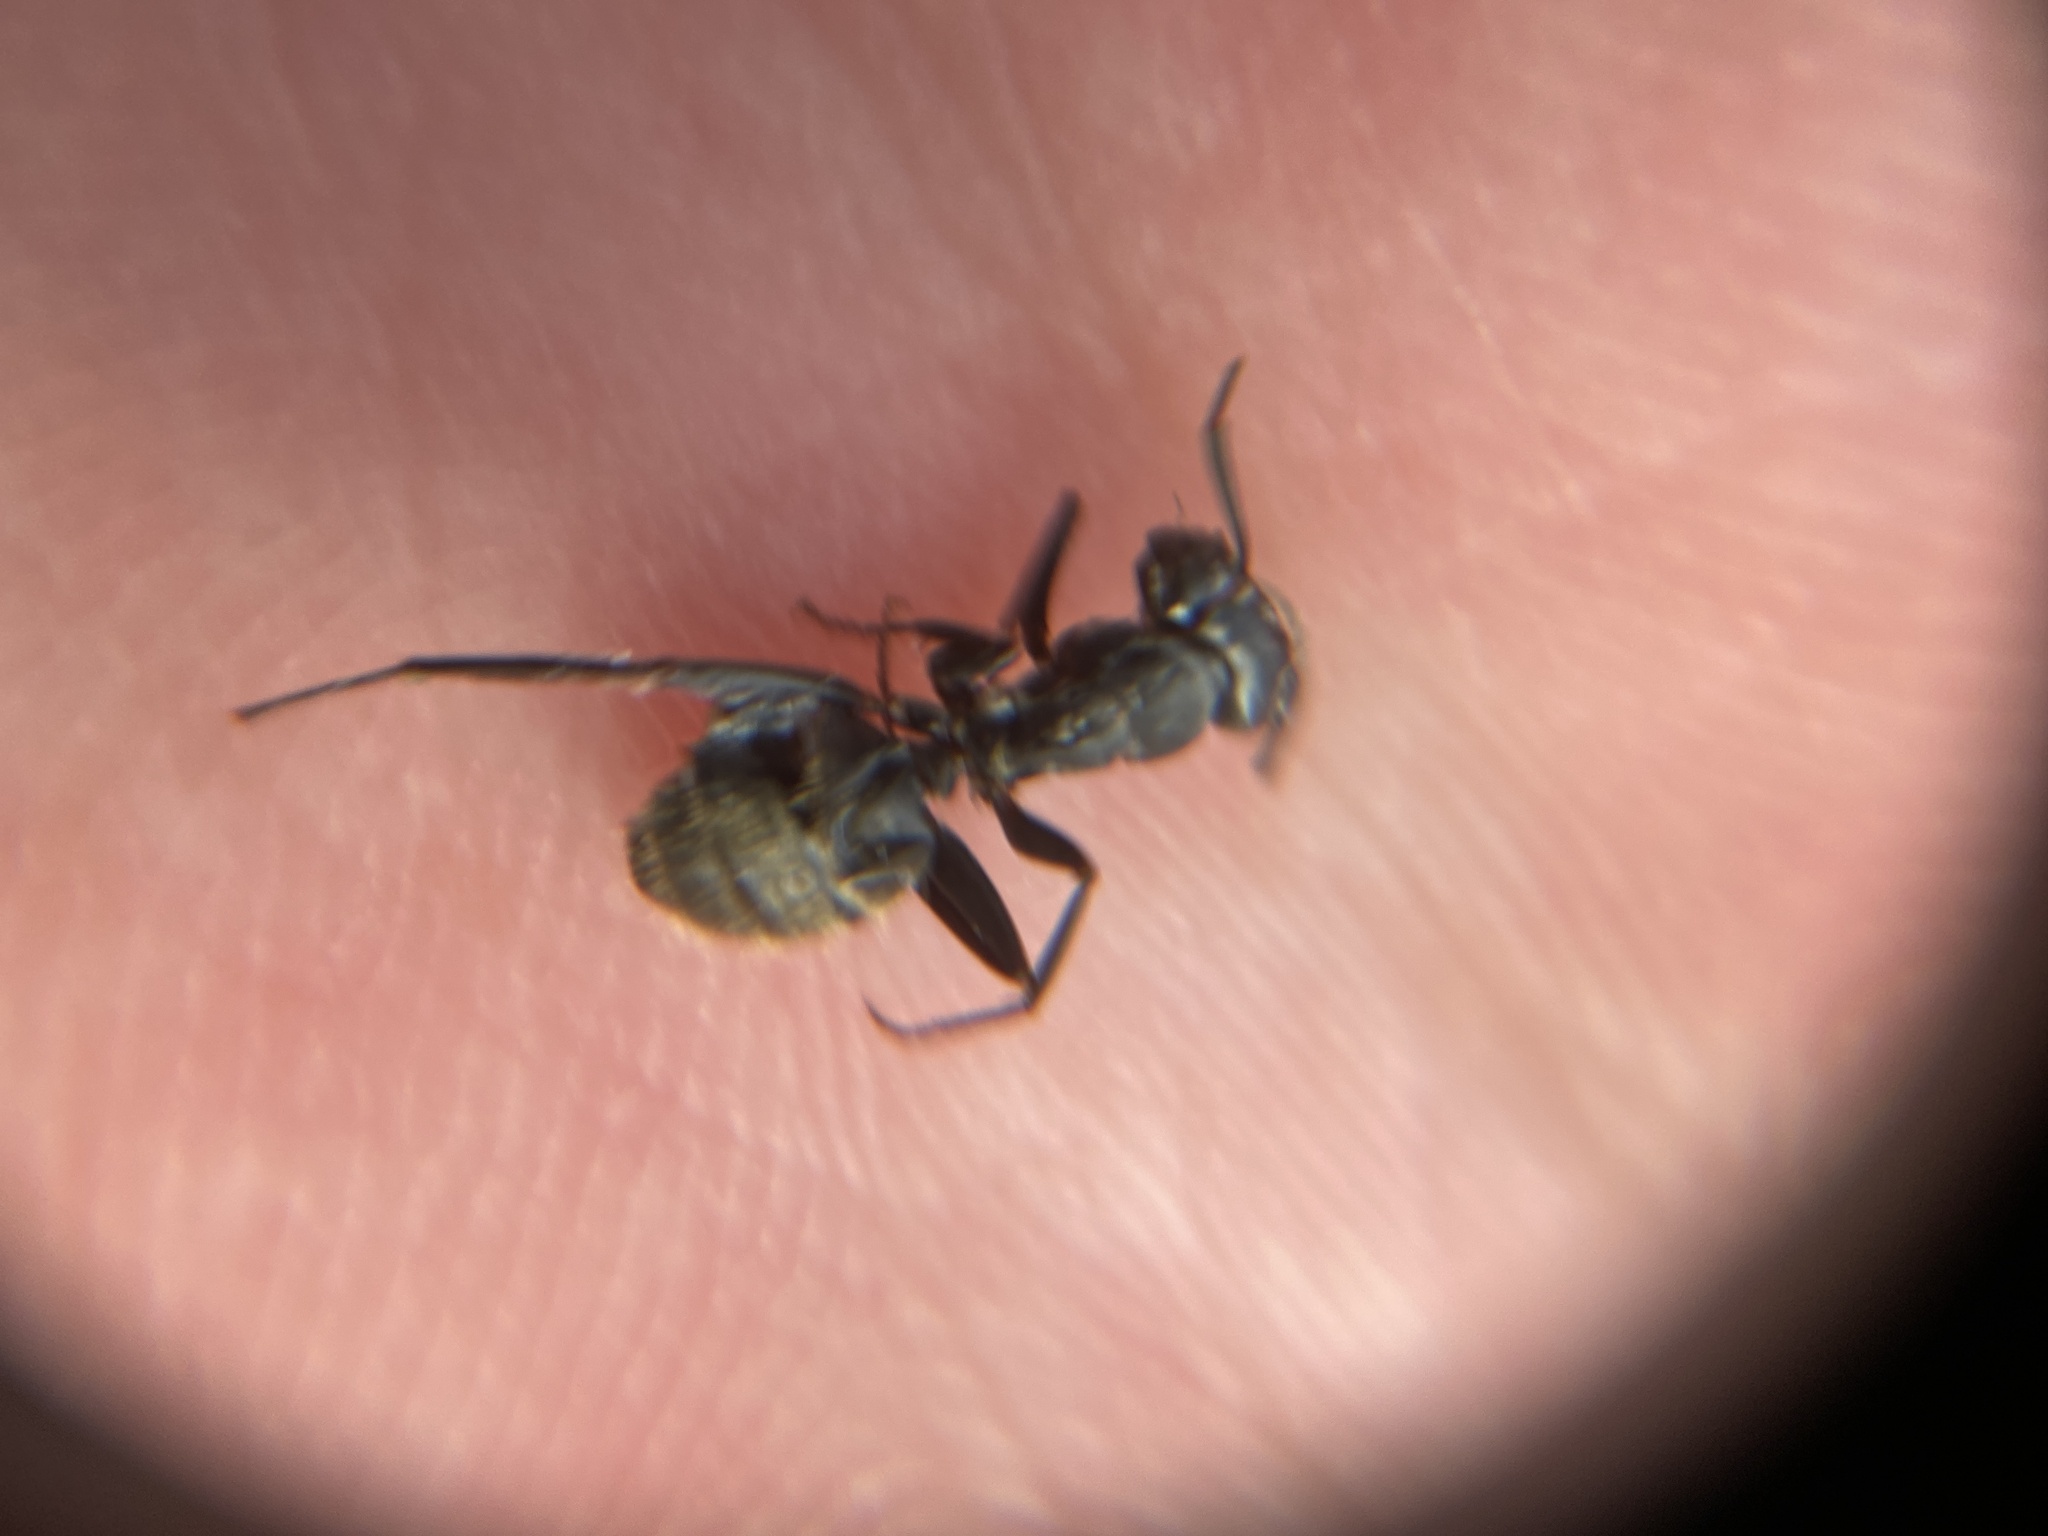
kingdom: Animalia
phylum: Arthropoda
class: Insecta
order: Hymenoptera
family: Formicidae
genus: Camponotus
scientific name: Camponotus pennsylvanicus
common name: Black carpenter ant
